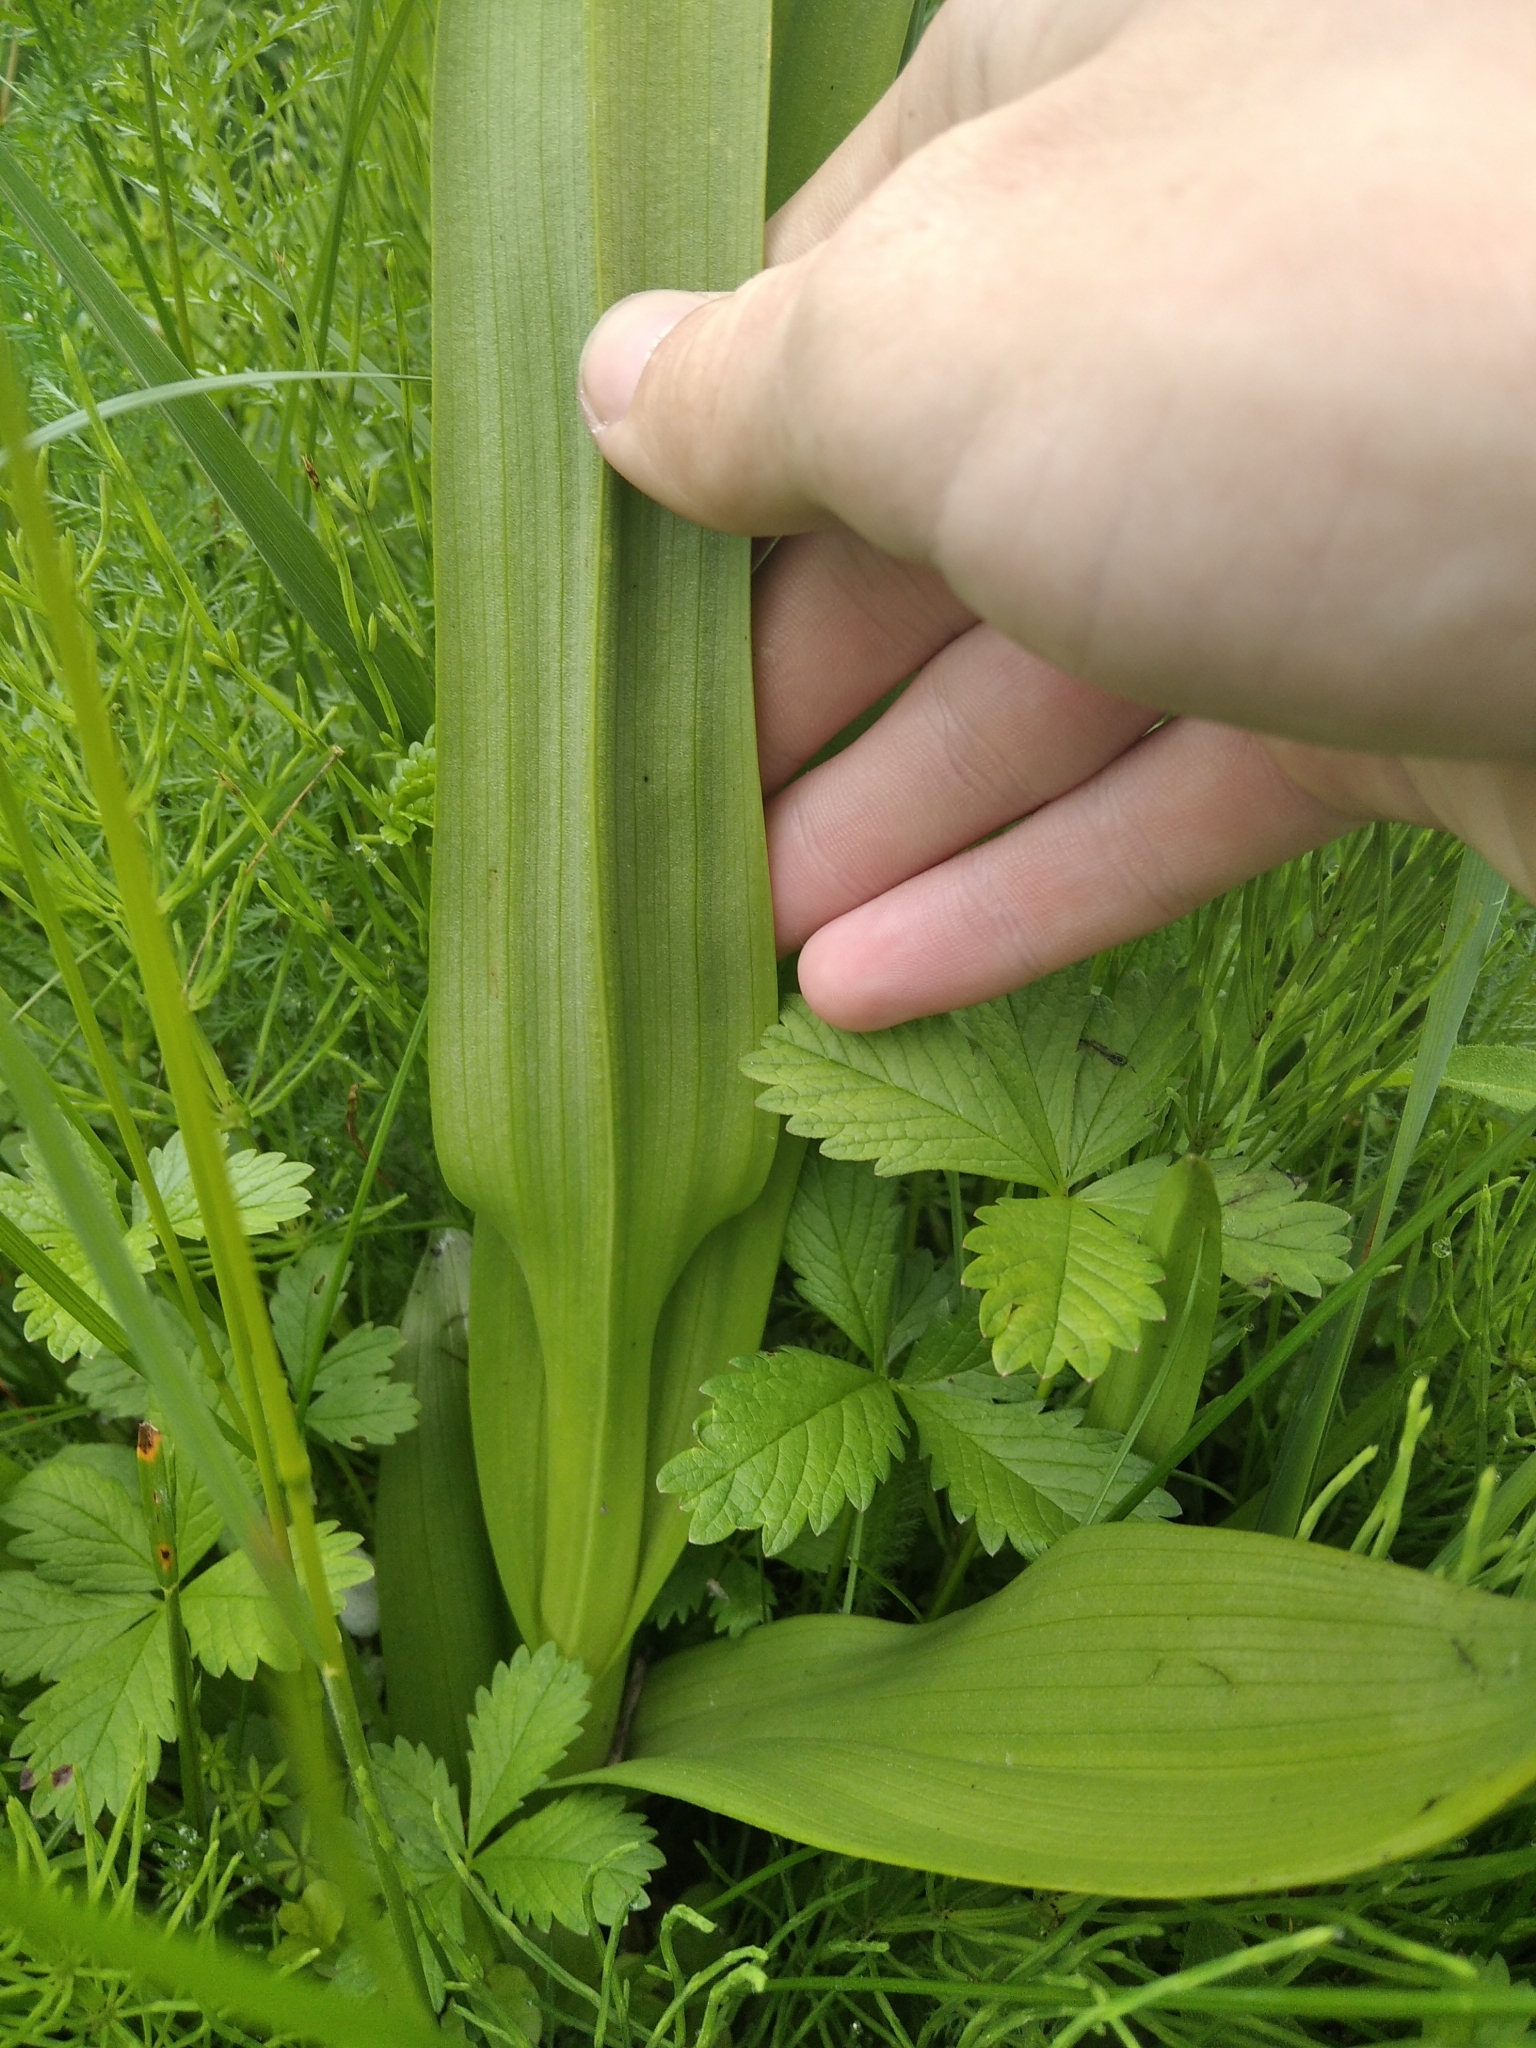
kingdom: Plantae
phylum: Tracheophyta
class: Liliopsida
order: Asparagales
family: Orchidaceae
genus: Dactylorhiza
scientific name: Dactylorhiza incarnata
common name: Early marsh-orchid
